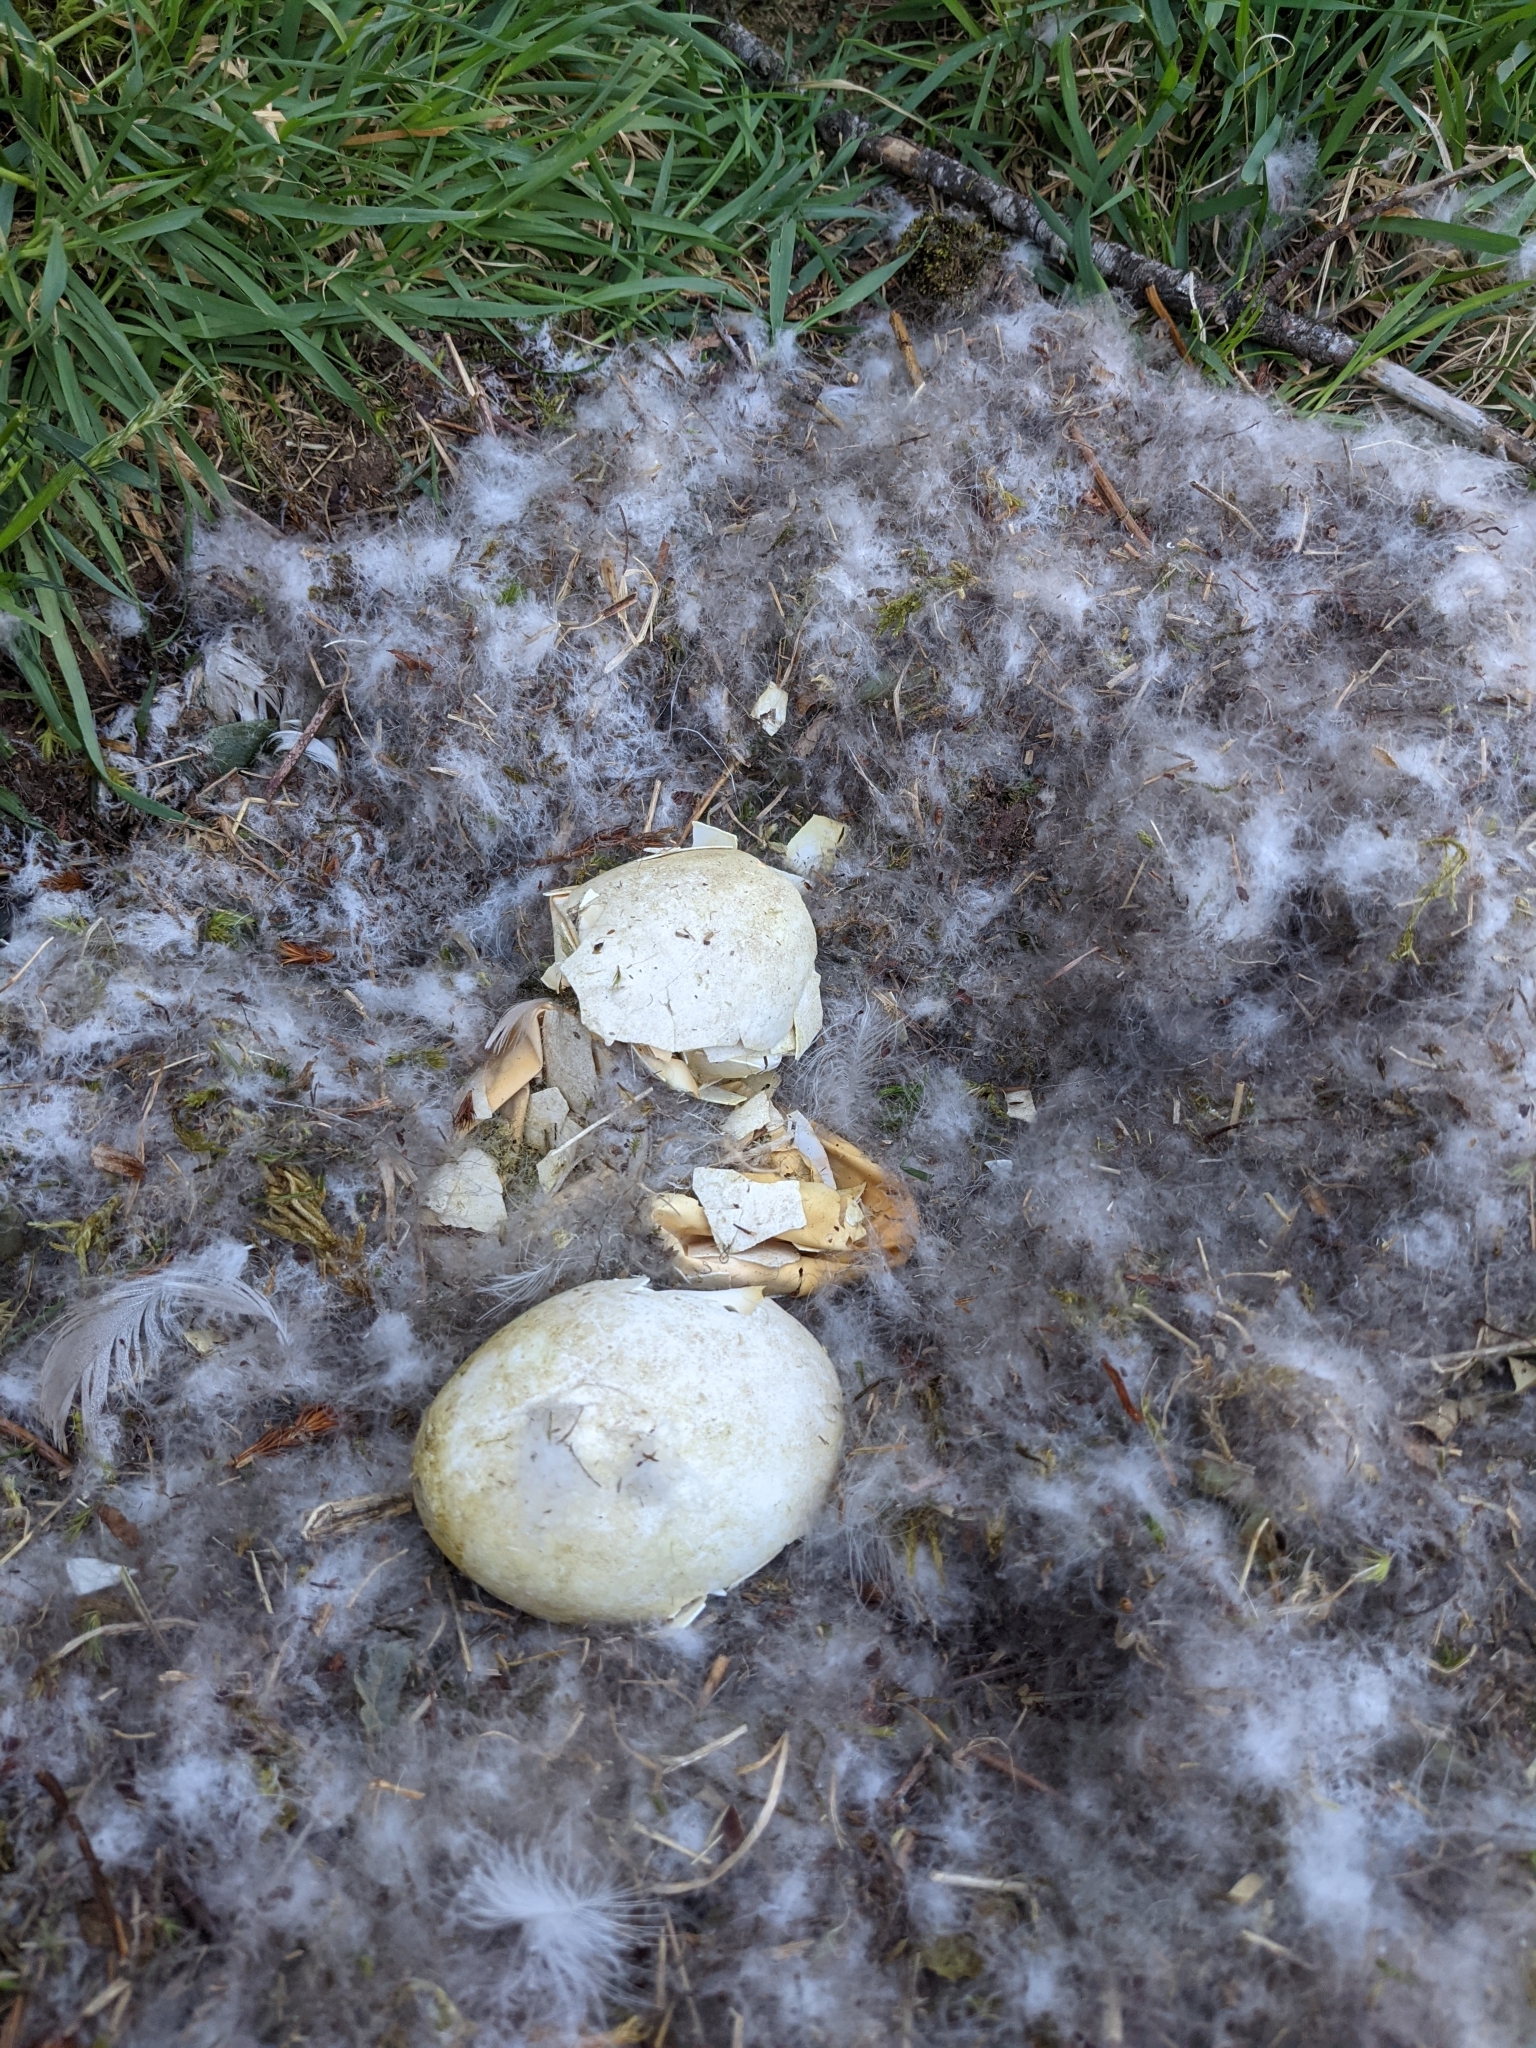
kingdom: Animalia
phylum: Chordata
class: Aves
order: Anseriformes
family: Anatidae
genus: Branta
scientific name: Branta canadensis
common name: Canada goose
